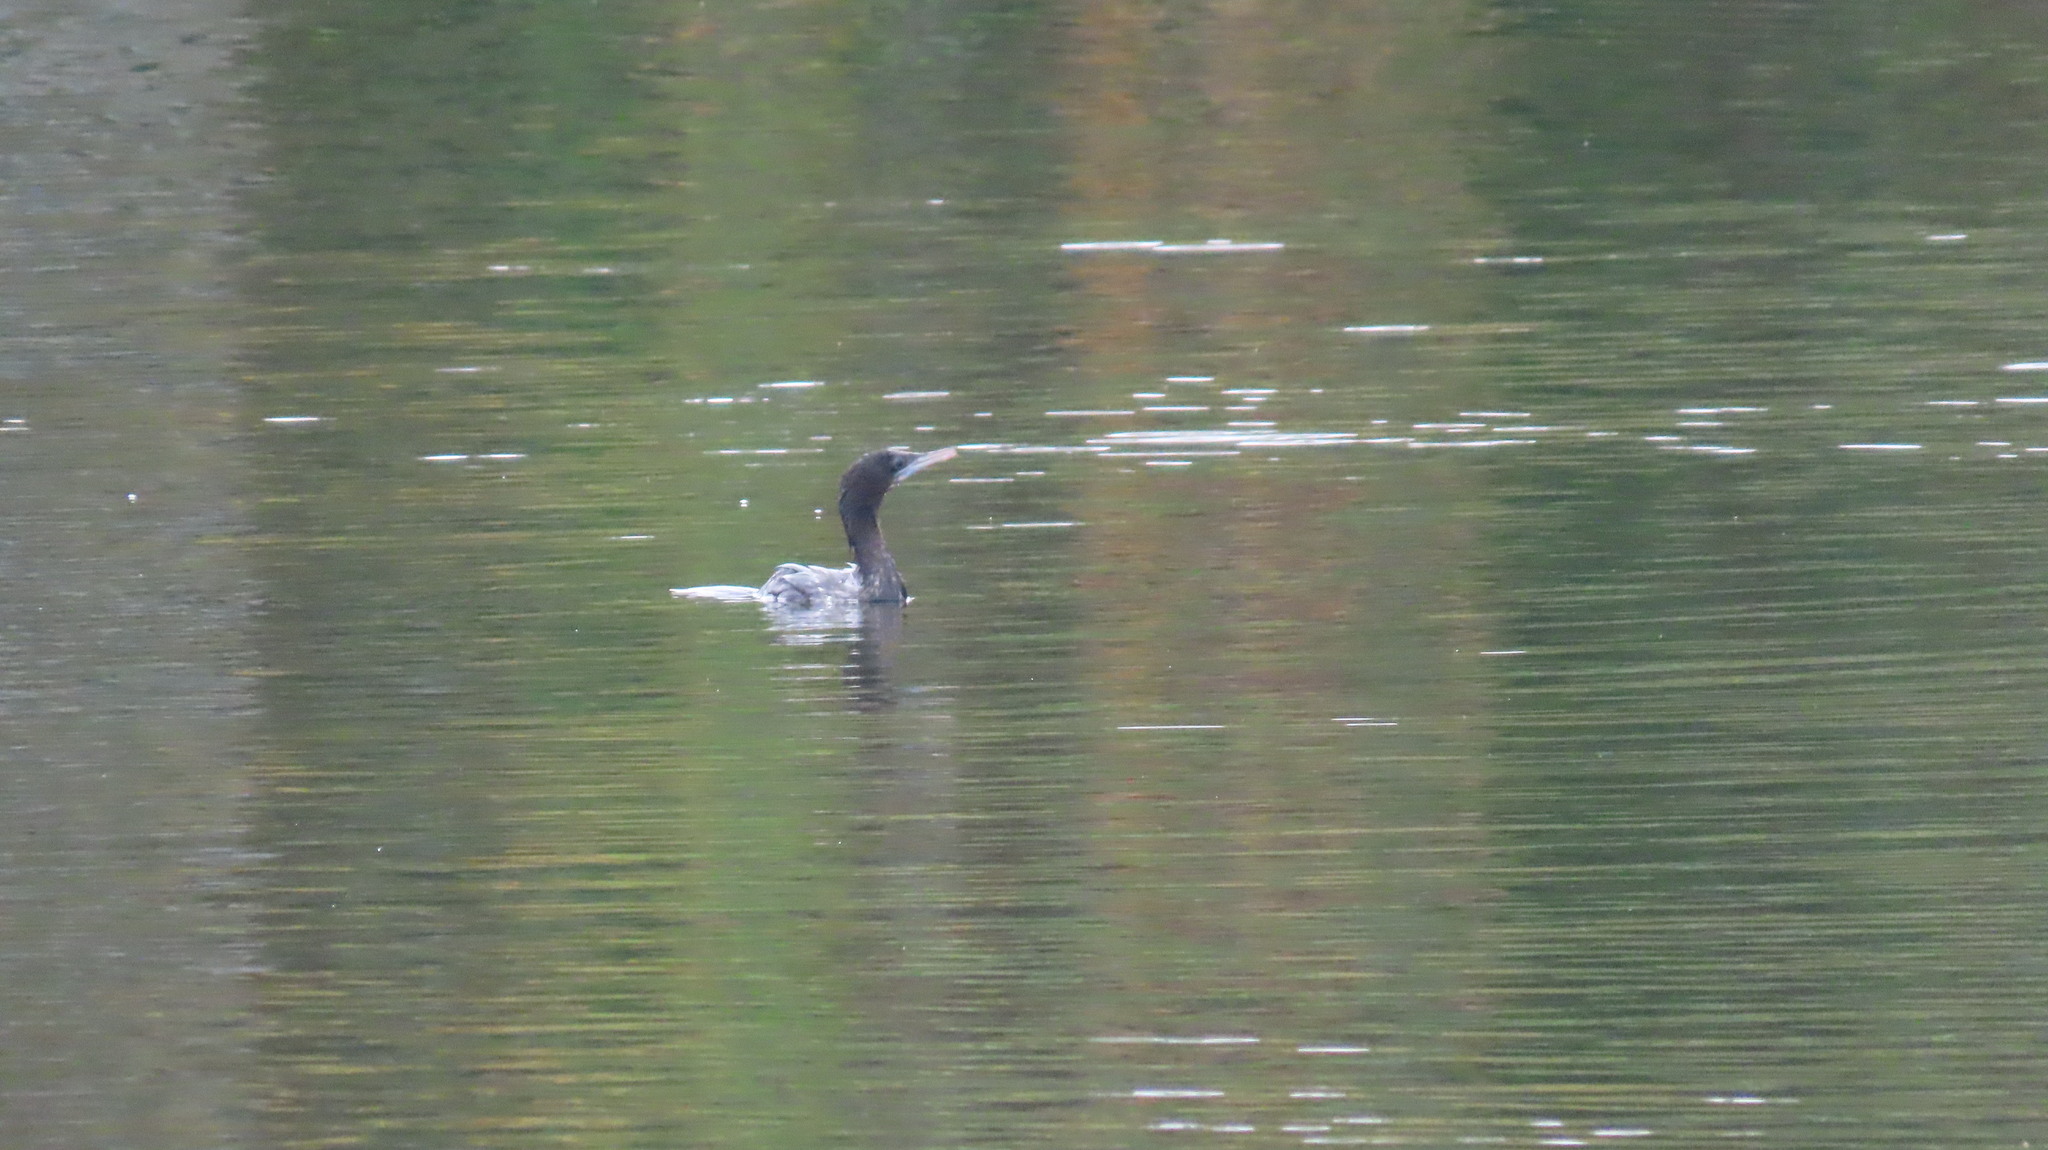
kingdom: Animalia
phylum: Chordata
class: Aves
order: Suliformes
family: Phalacrocoracidae
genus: Microcarbo
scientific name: Microcarbo niger
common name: Little cormorant
